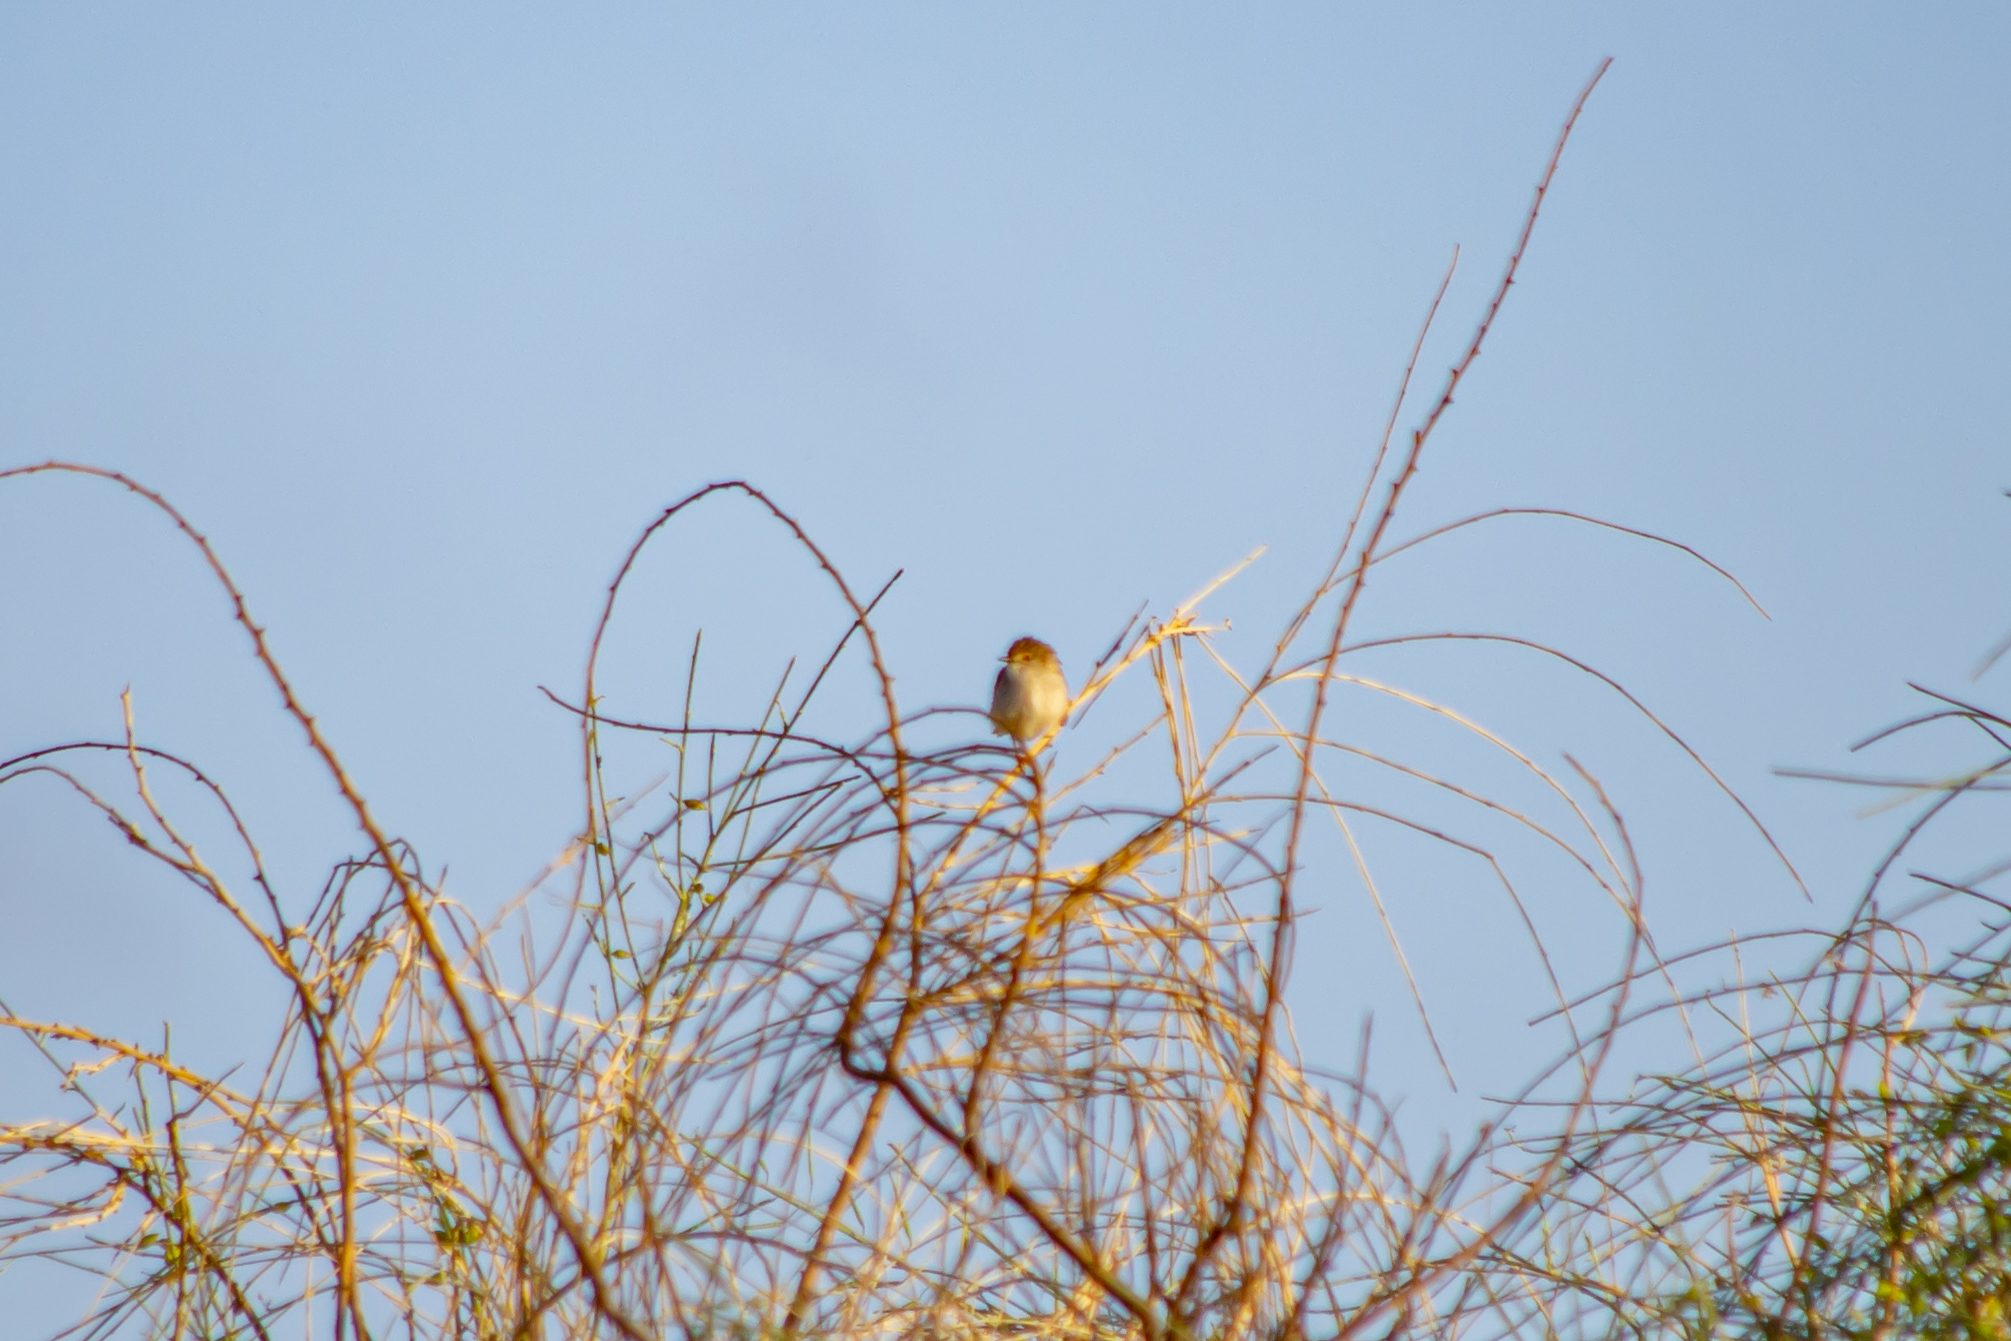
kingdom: Animalia
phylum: Chordata
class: Aves
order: Passeriformes
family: Cisticolidae
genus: Prinia
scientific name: Prinia gracilis
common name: Graceful prinia
